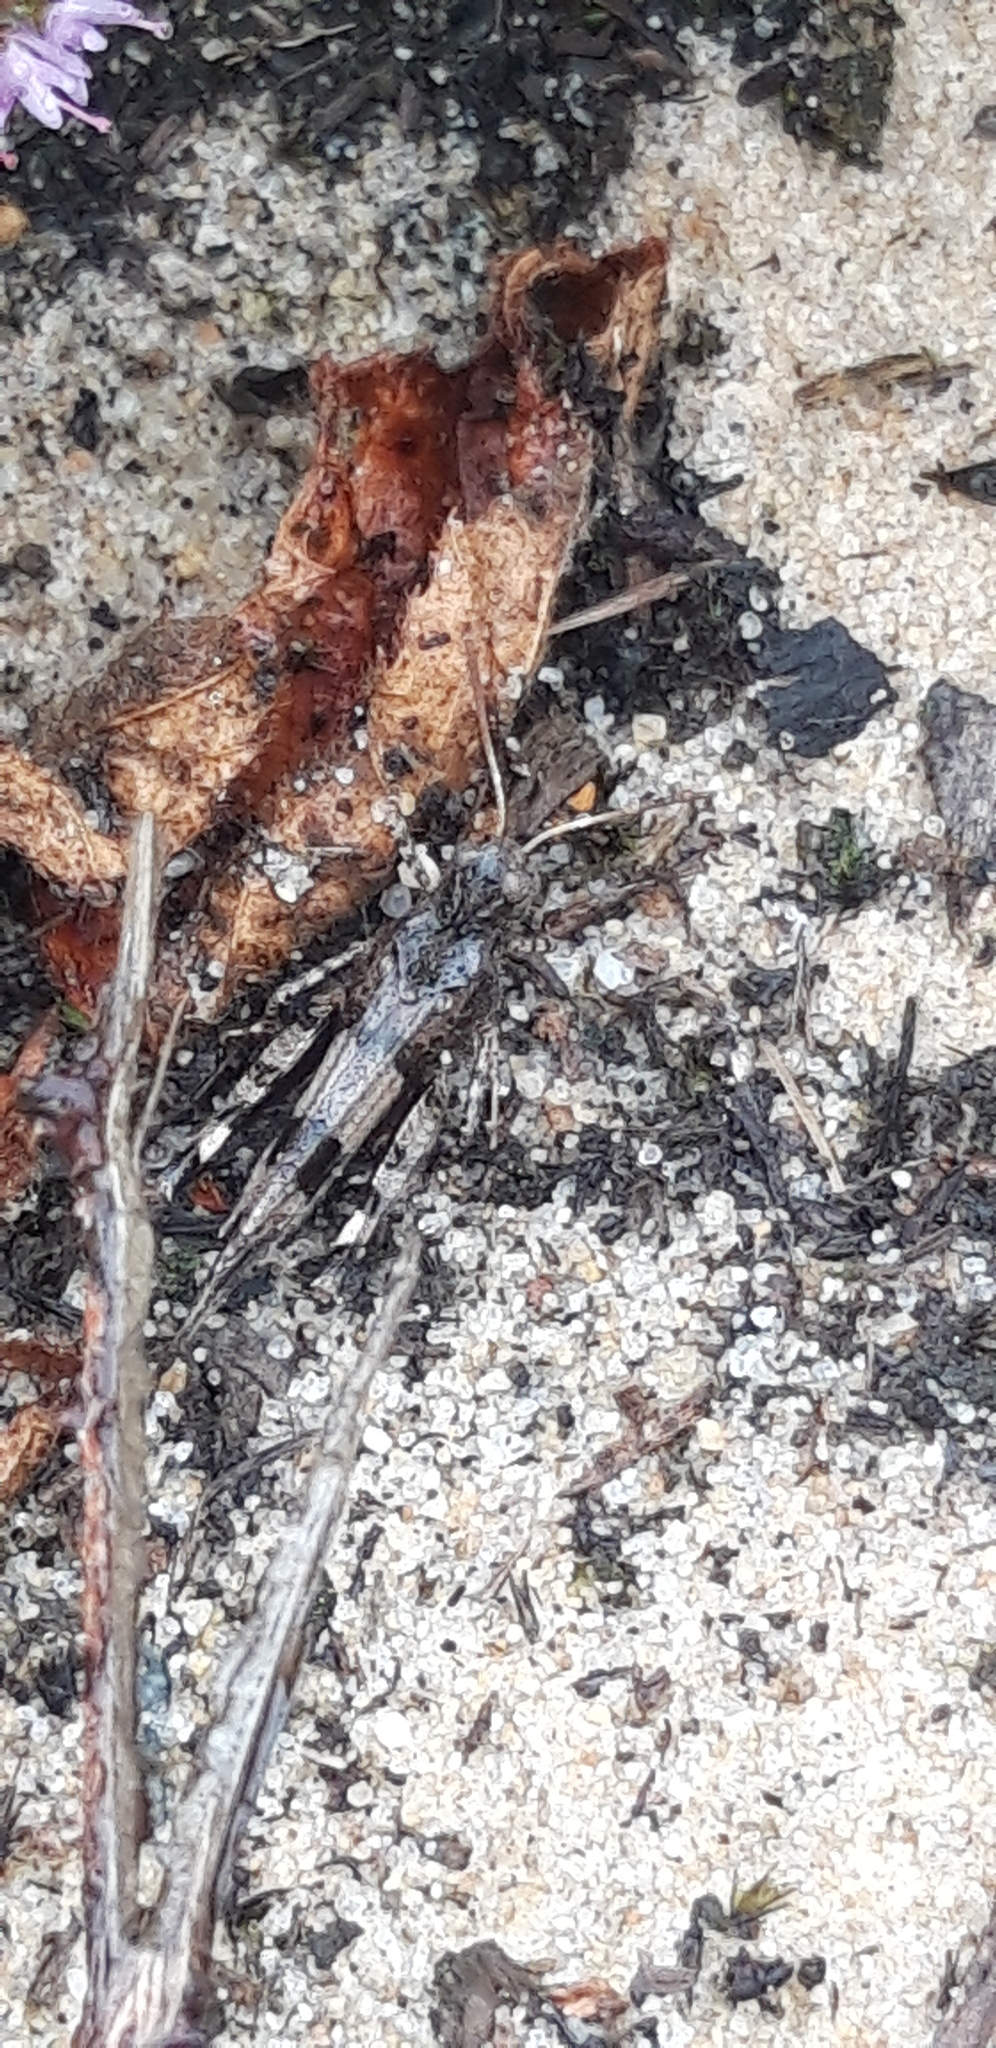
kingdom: Animalia
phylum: Arthropoda
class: Insecta
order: Orthoptera
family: Acrididae
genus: Oedipoda
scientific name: Oedipoda caerulescens
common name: Blue-winged grasshopper
